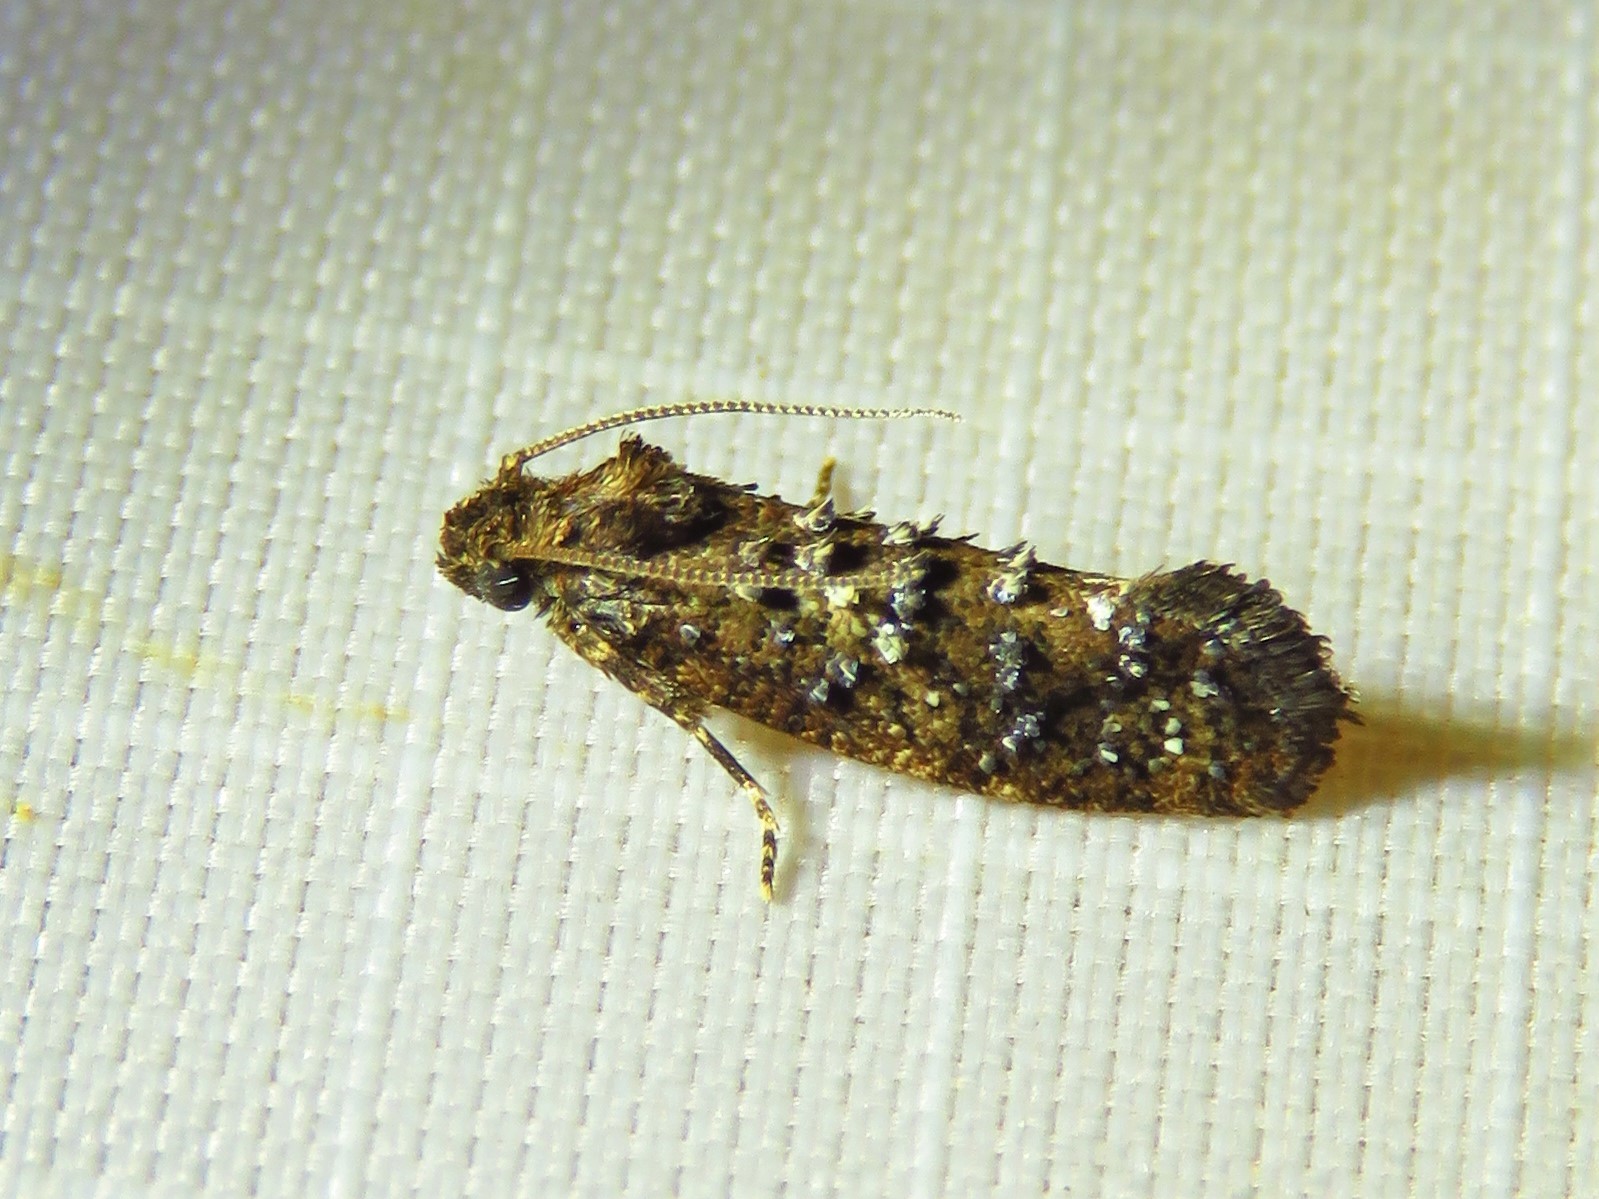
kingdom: Animalia
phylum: Arthropoda
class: Insecta
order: Lepidoptera
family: Tineidae
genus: Acrolophus
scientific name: Acrolophus cressoni
